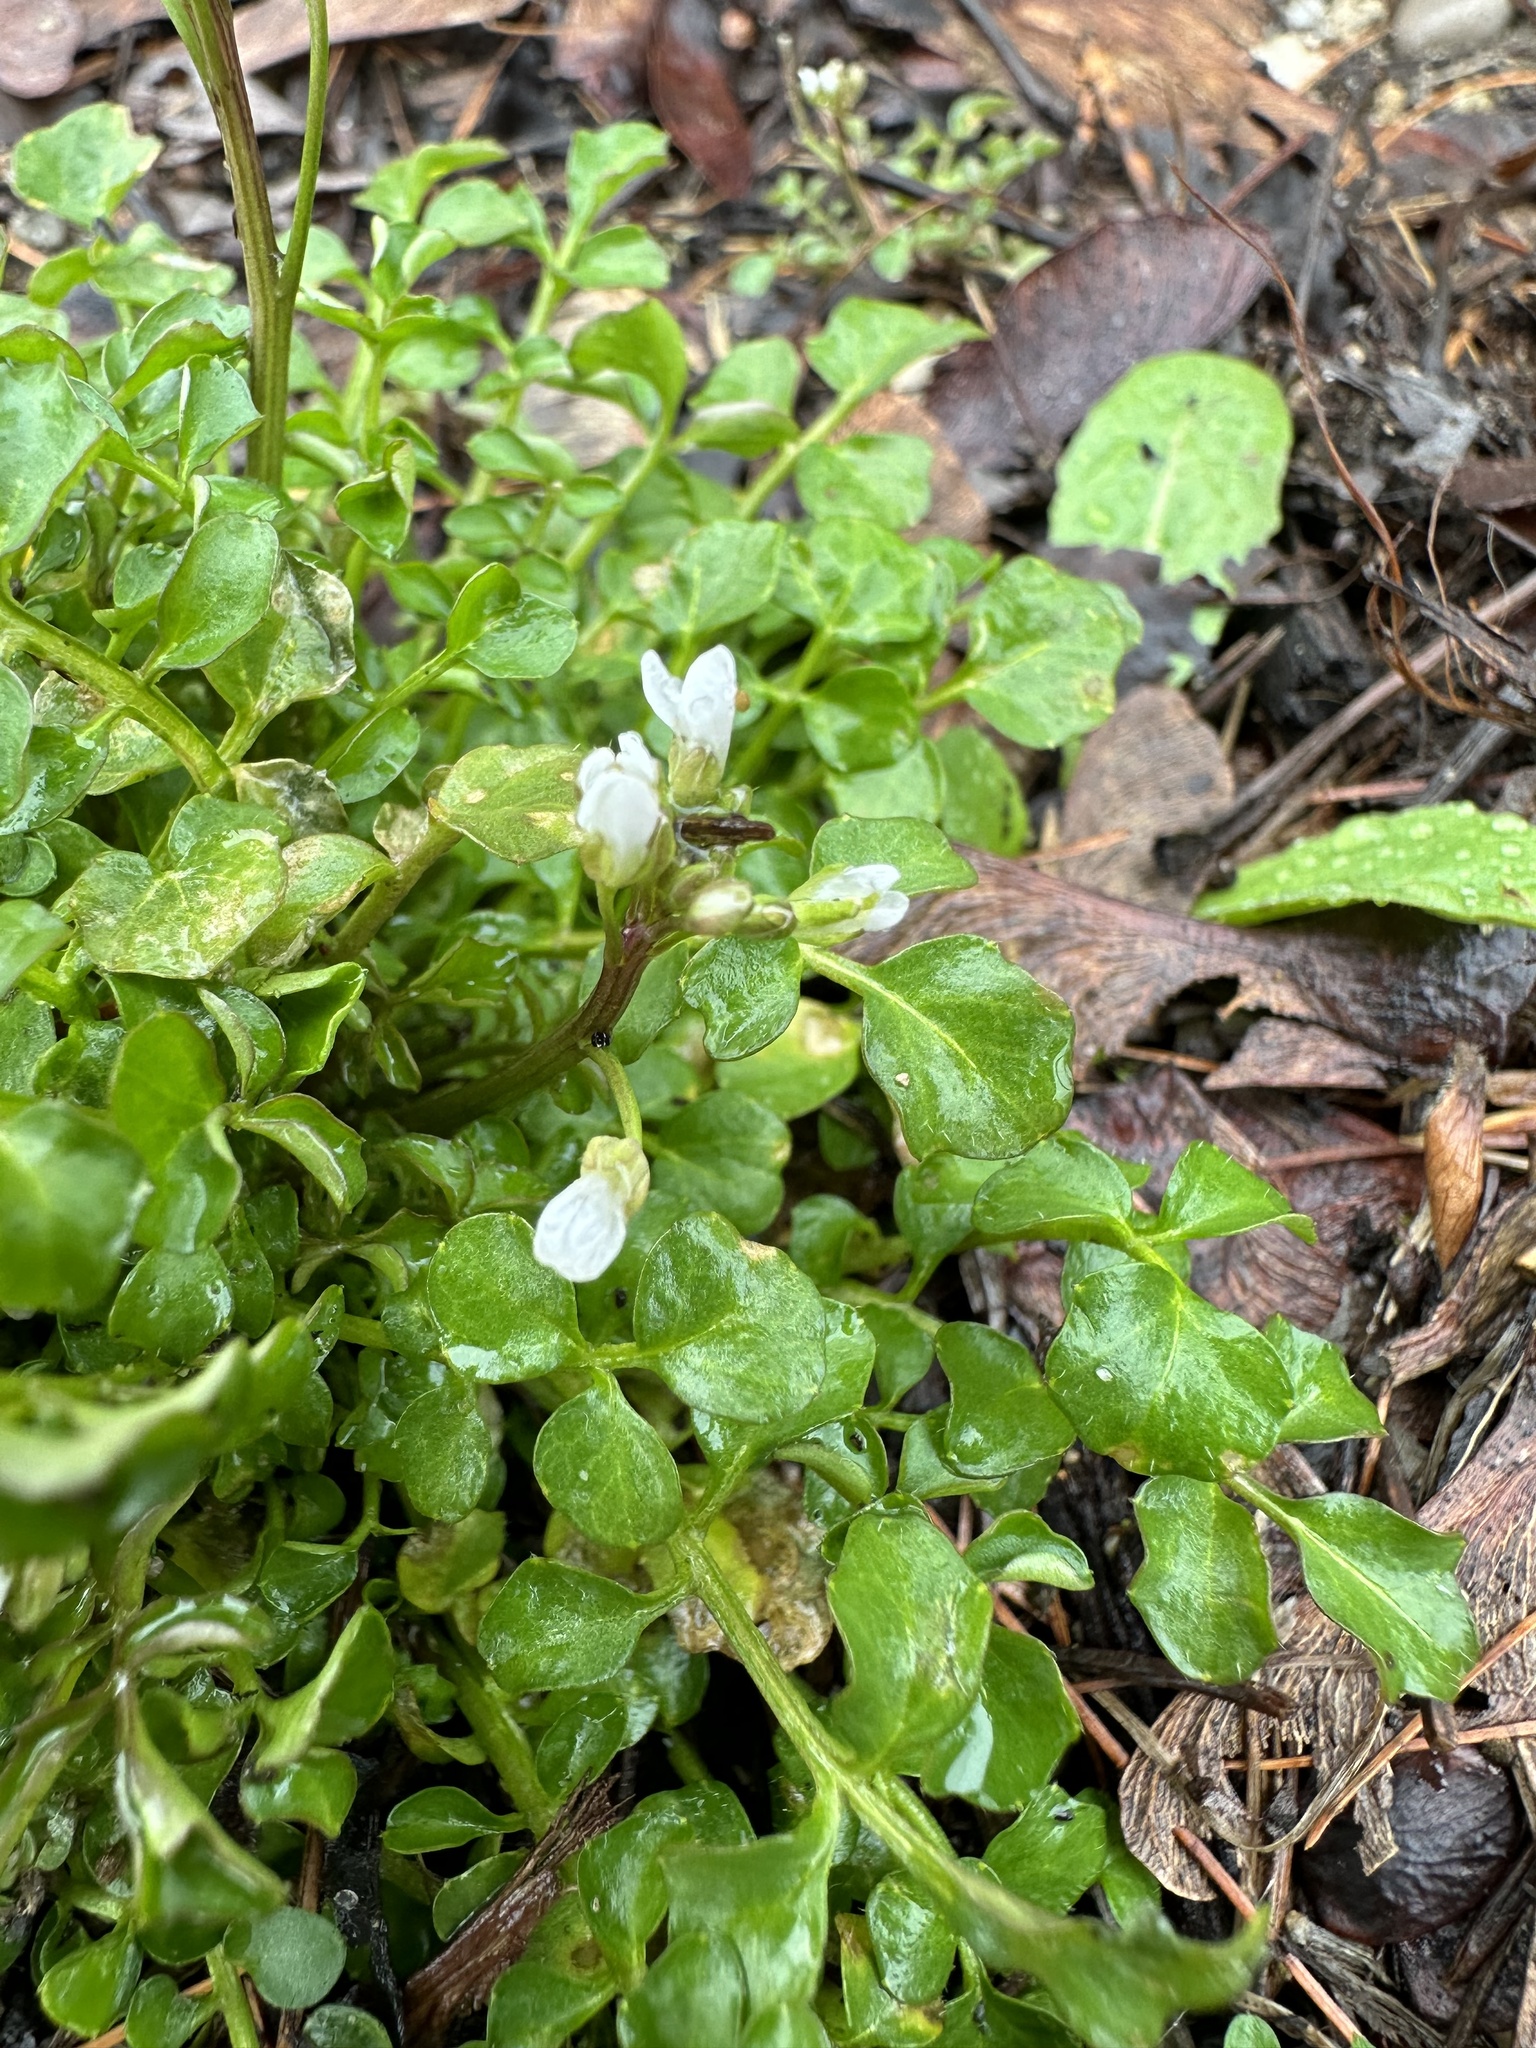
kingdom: Plantae
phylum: Tracheophyta
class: Magnoliopsida
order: Brassicales
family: Brassicaceae
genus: Cardamine
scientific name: Cardamine hirsuta
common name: Hairy bittercress
